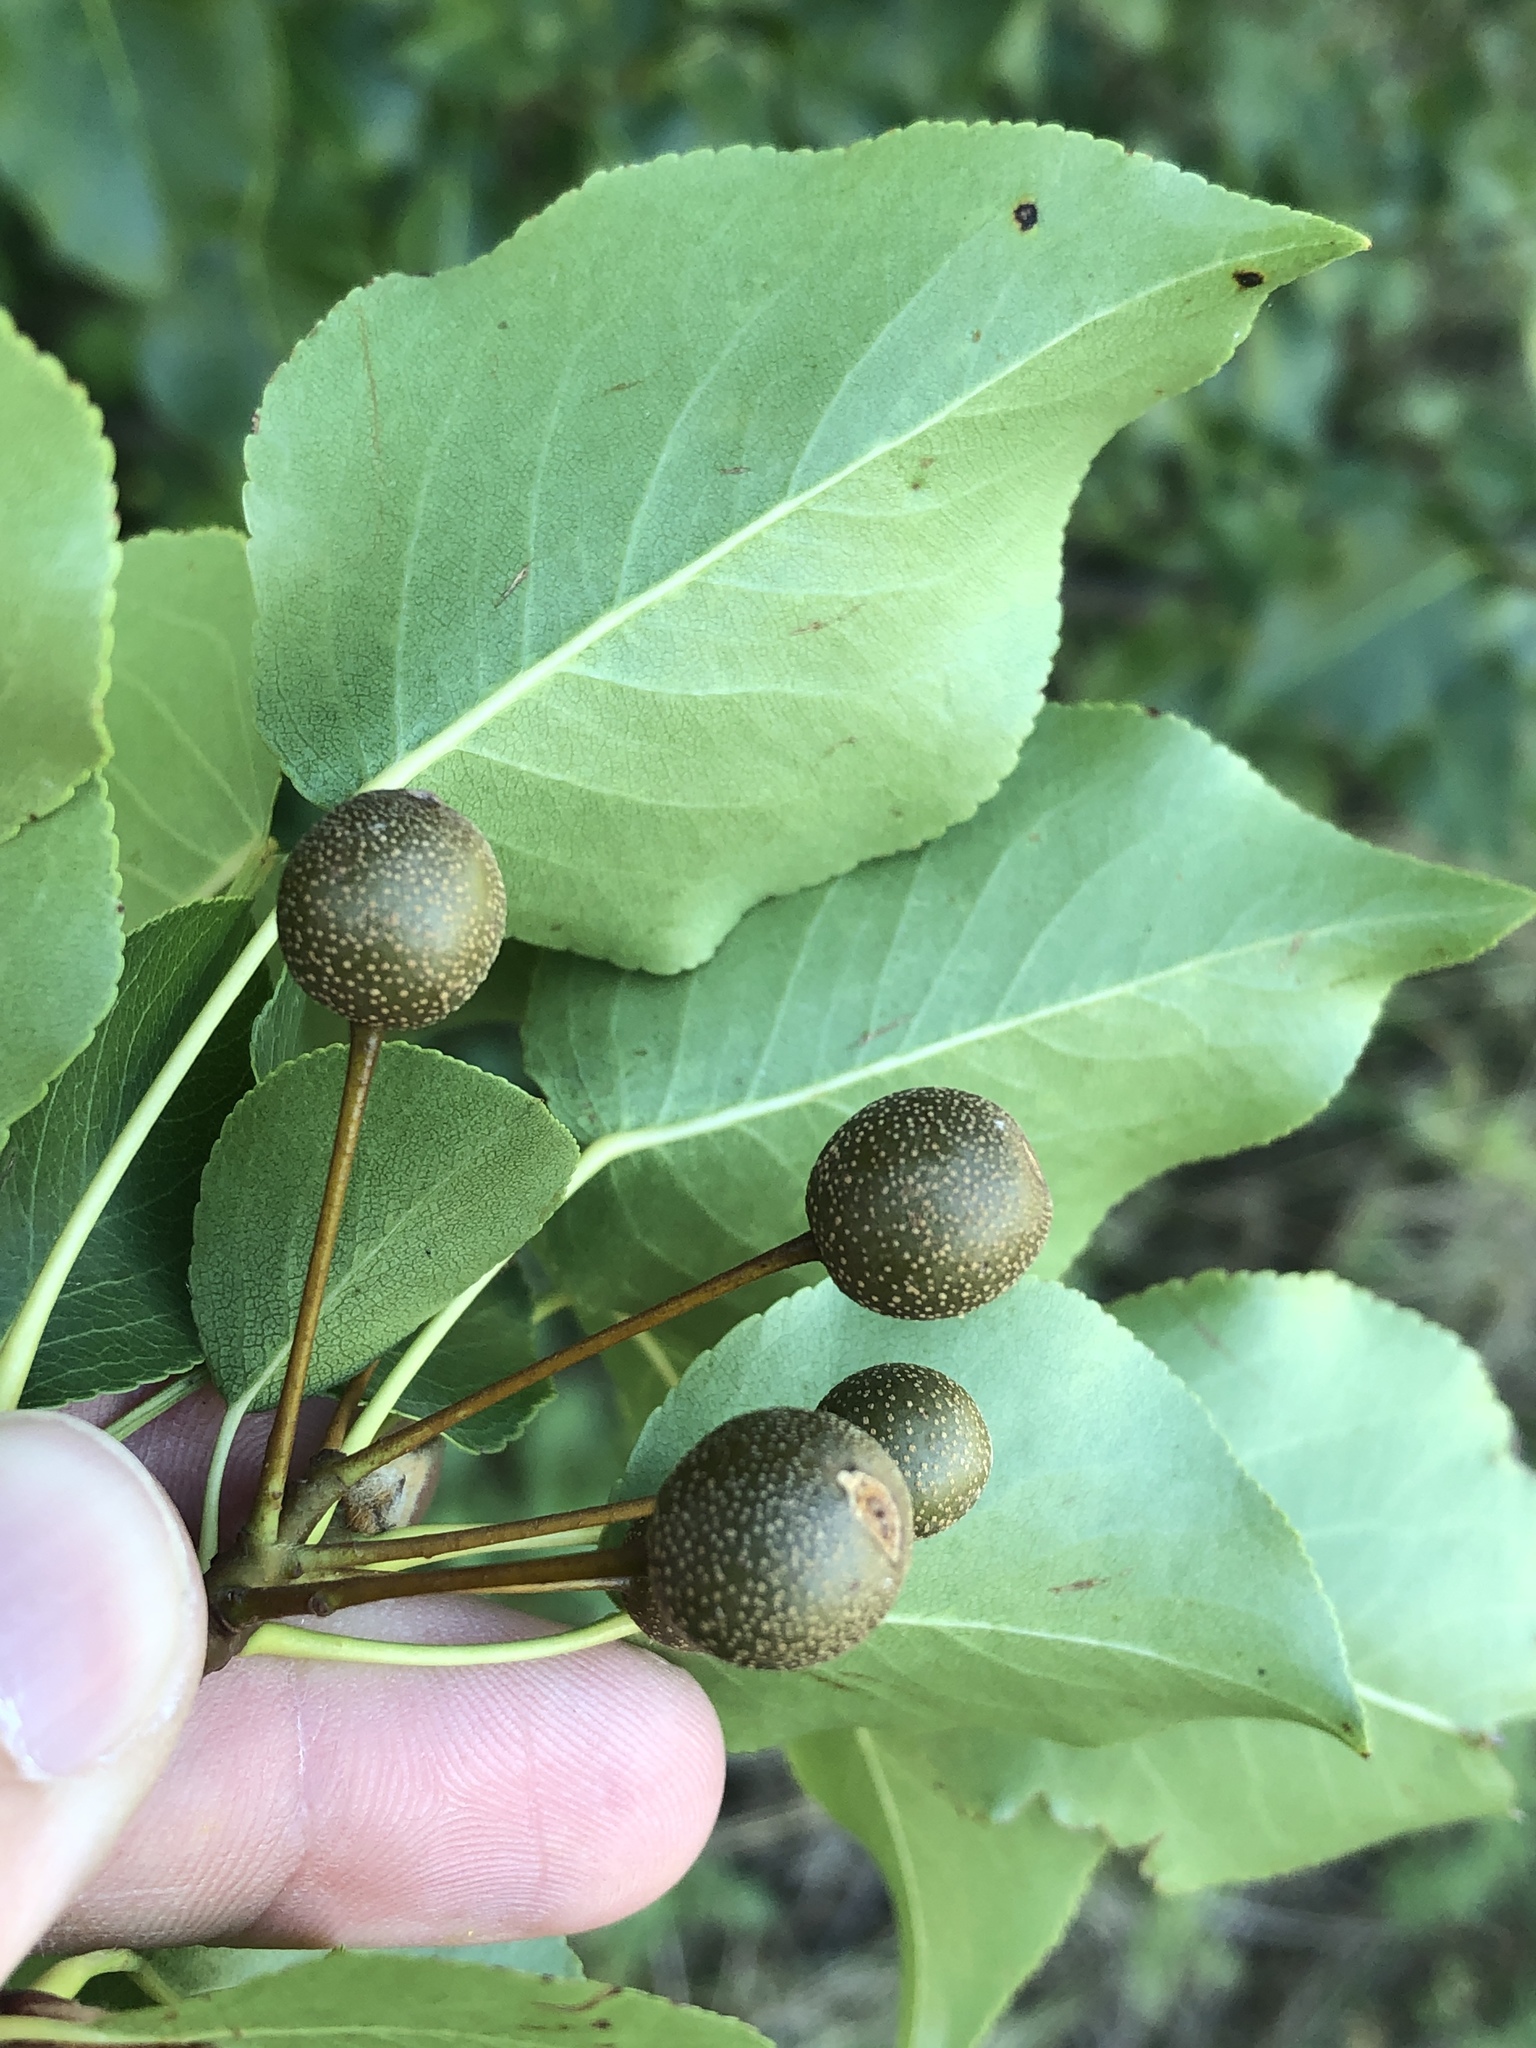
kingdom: Plantae
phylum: Tracheophyta
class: Magnoliopsida
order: Rosales
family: Rosaceae
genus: Pyrus
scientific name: Pyrus calleryana
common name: Callery pear
